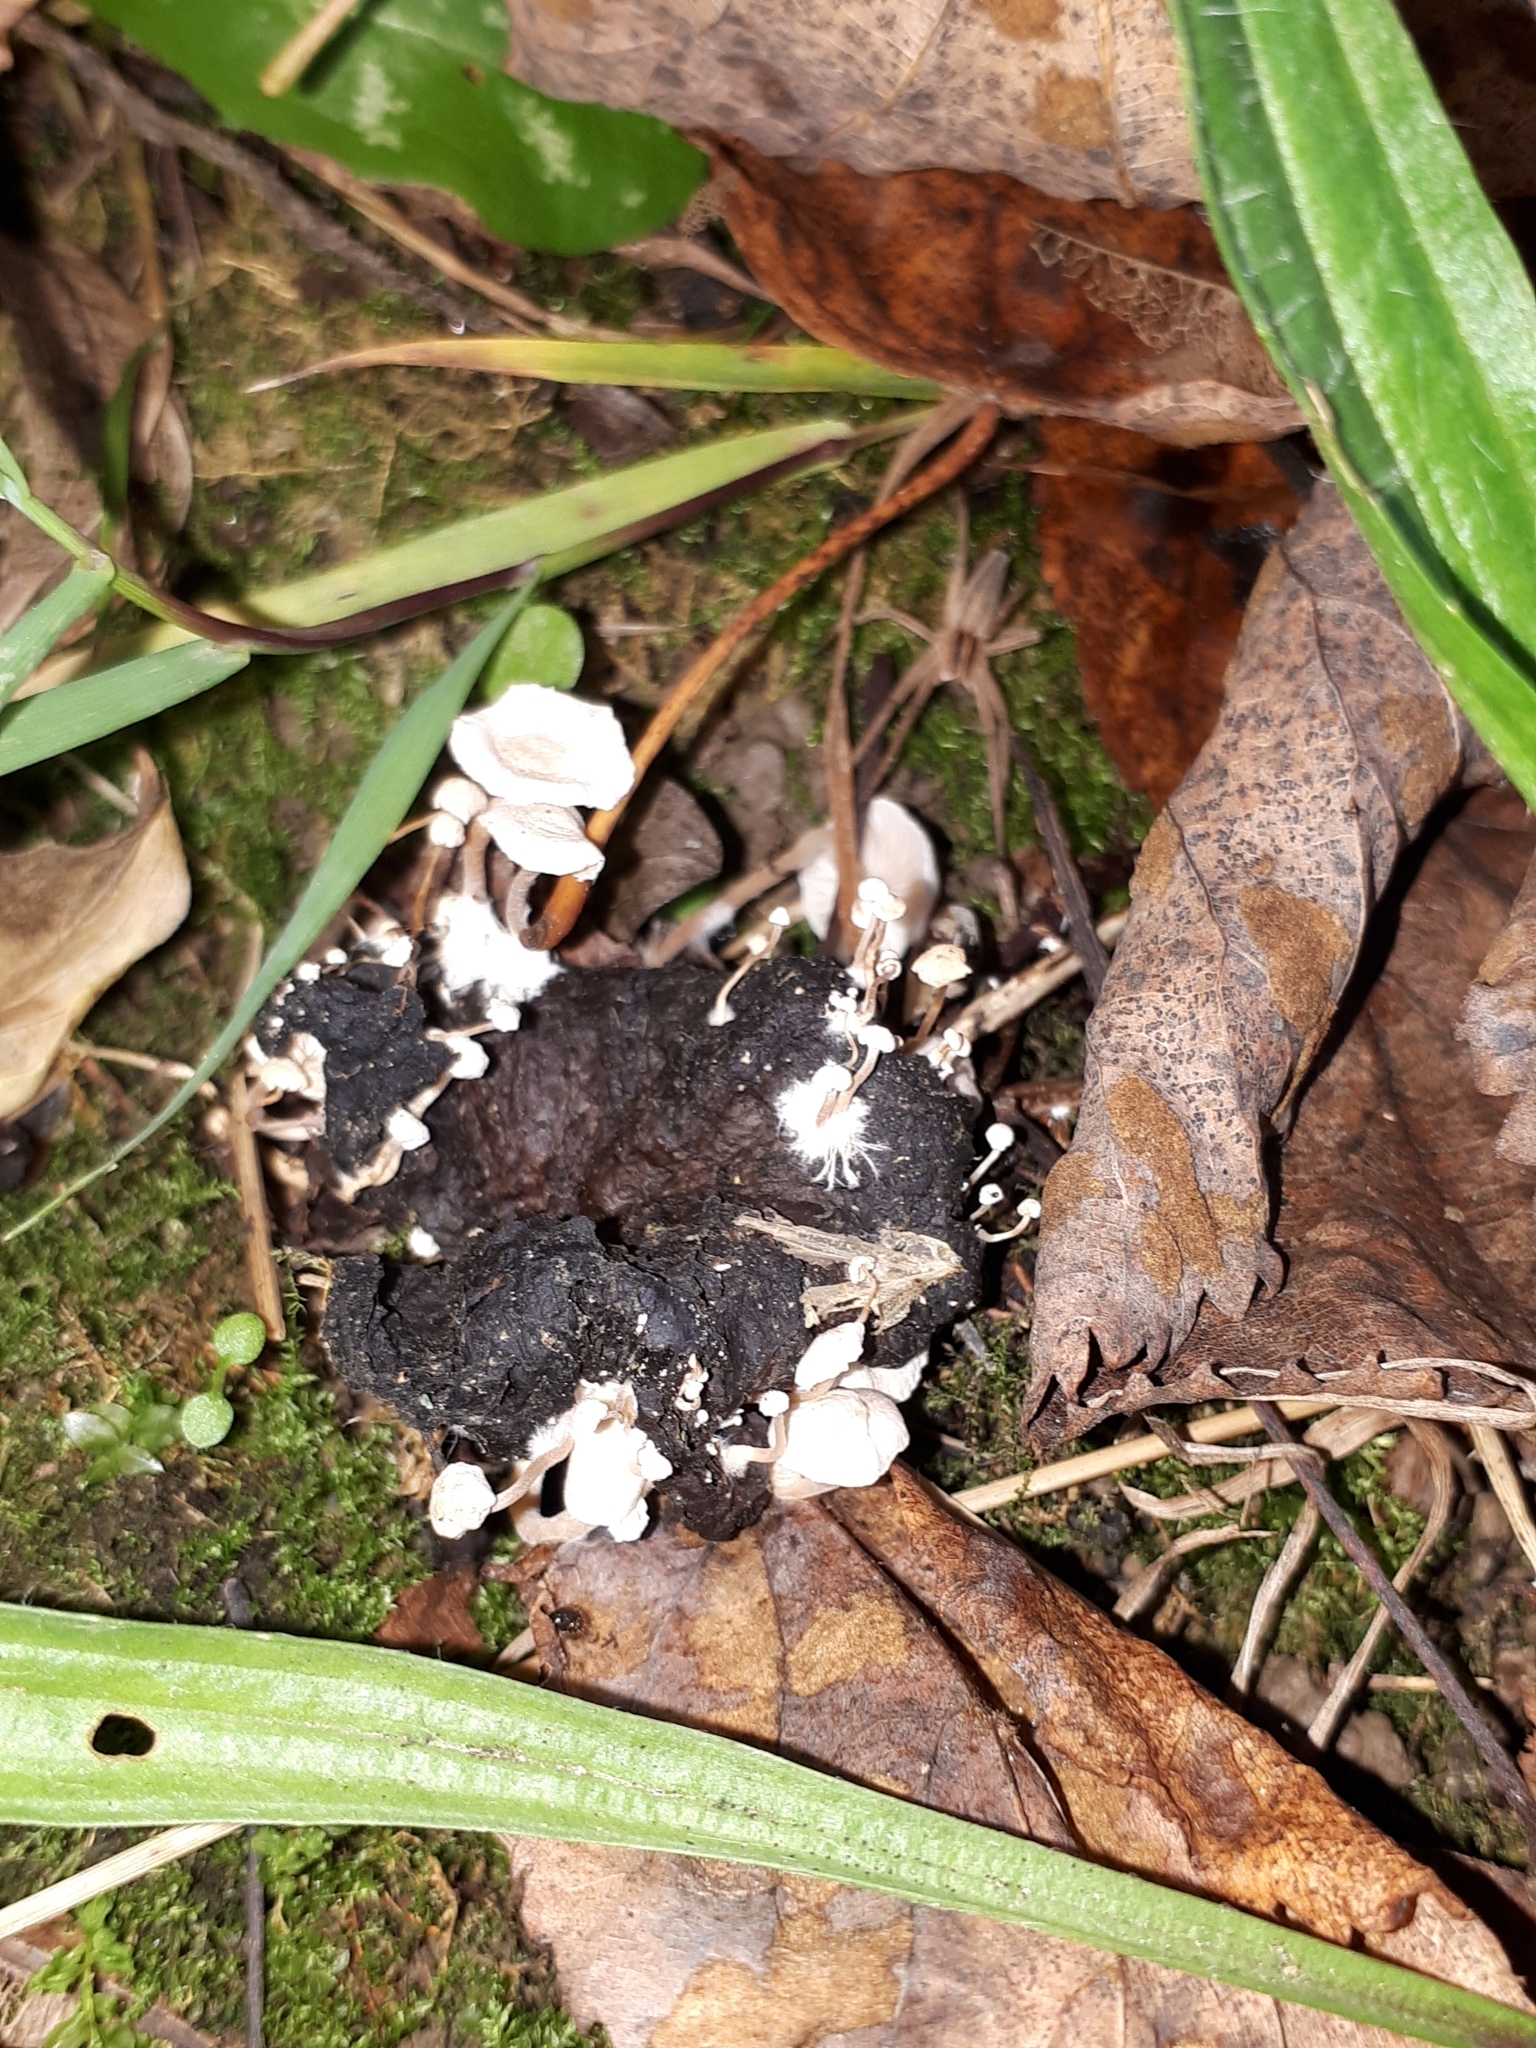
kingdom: Fungi
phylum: Basidiomycota
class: Agaricomycetes
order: Agaricales
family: Tricholomataceae
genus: Collybia
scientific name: Collybia cirrhata
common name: Piggyback shanklet
